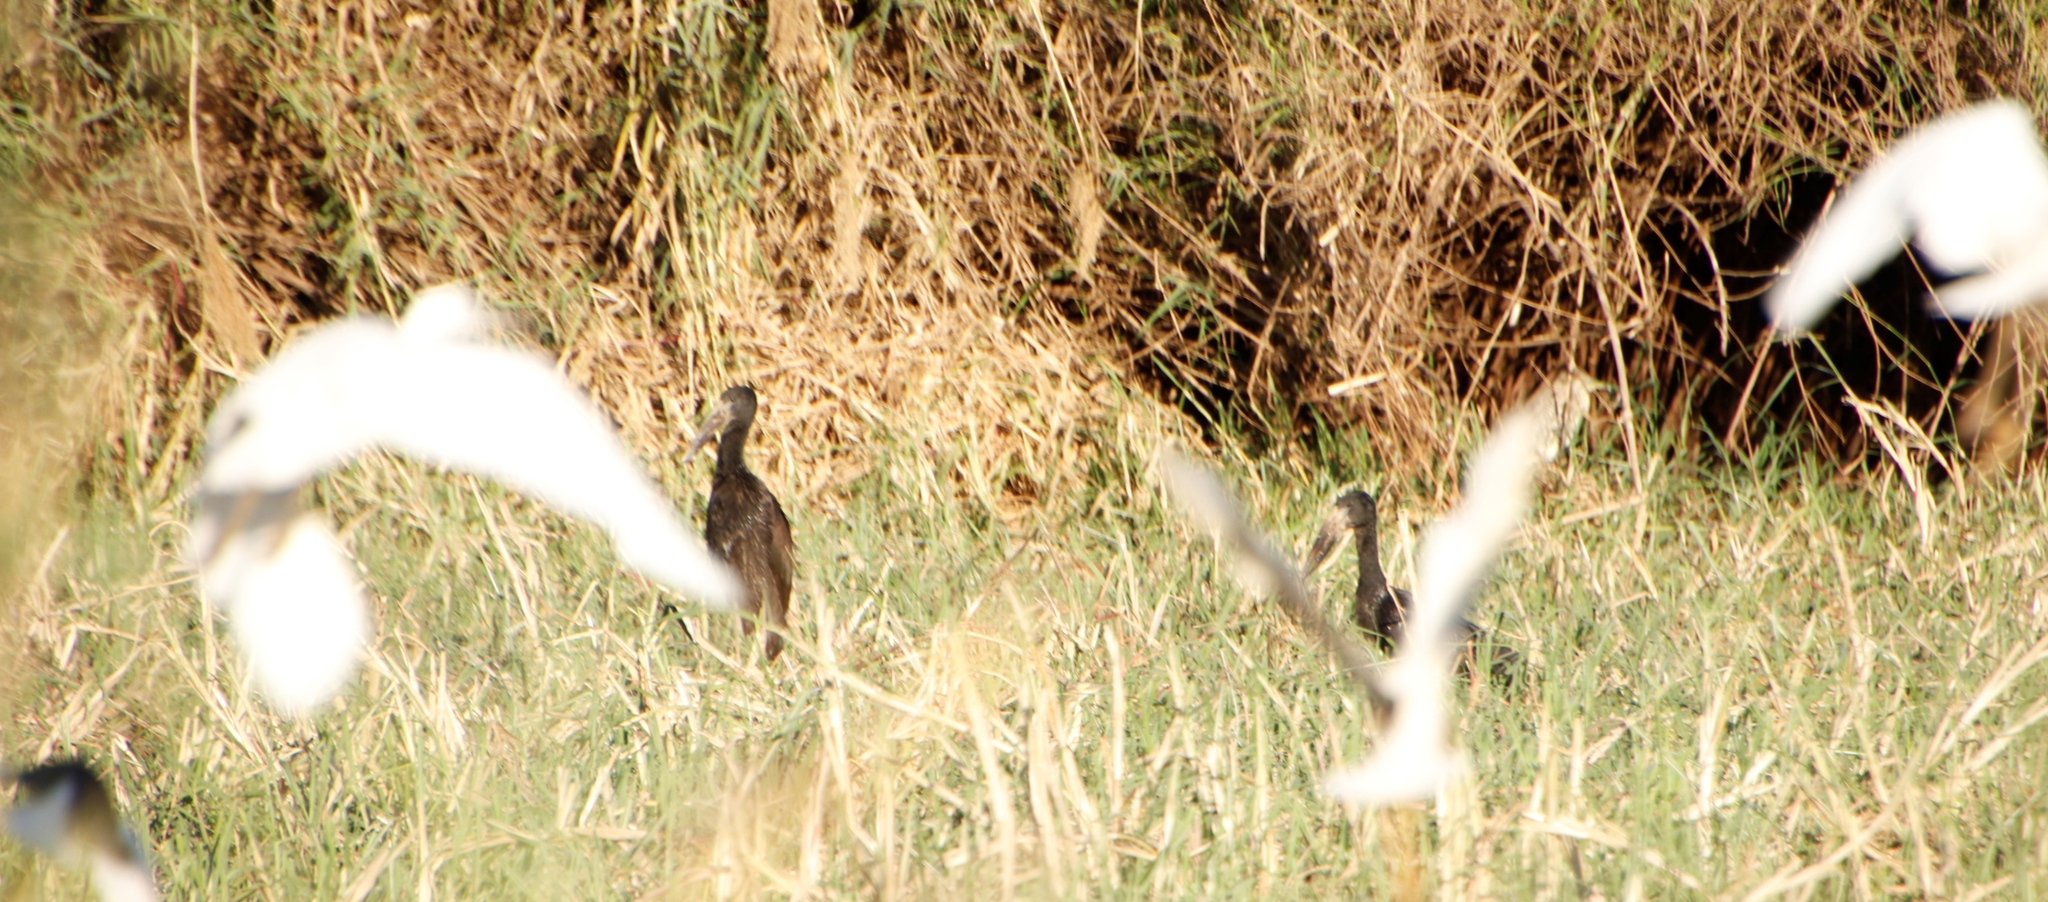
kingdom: Animalia
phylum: Chordata
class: Aves
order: Pelecaniformes
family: Ardeidae
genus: Bubulcus
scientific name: Bubulcus ibis
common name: Cattle egret
